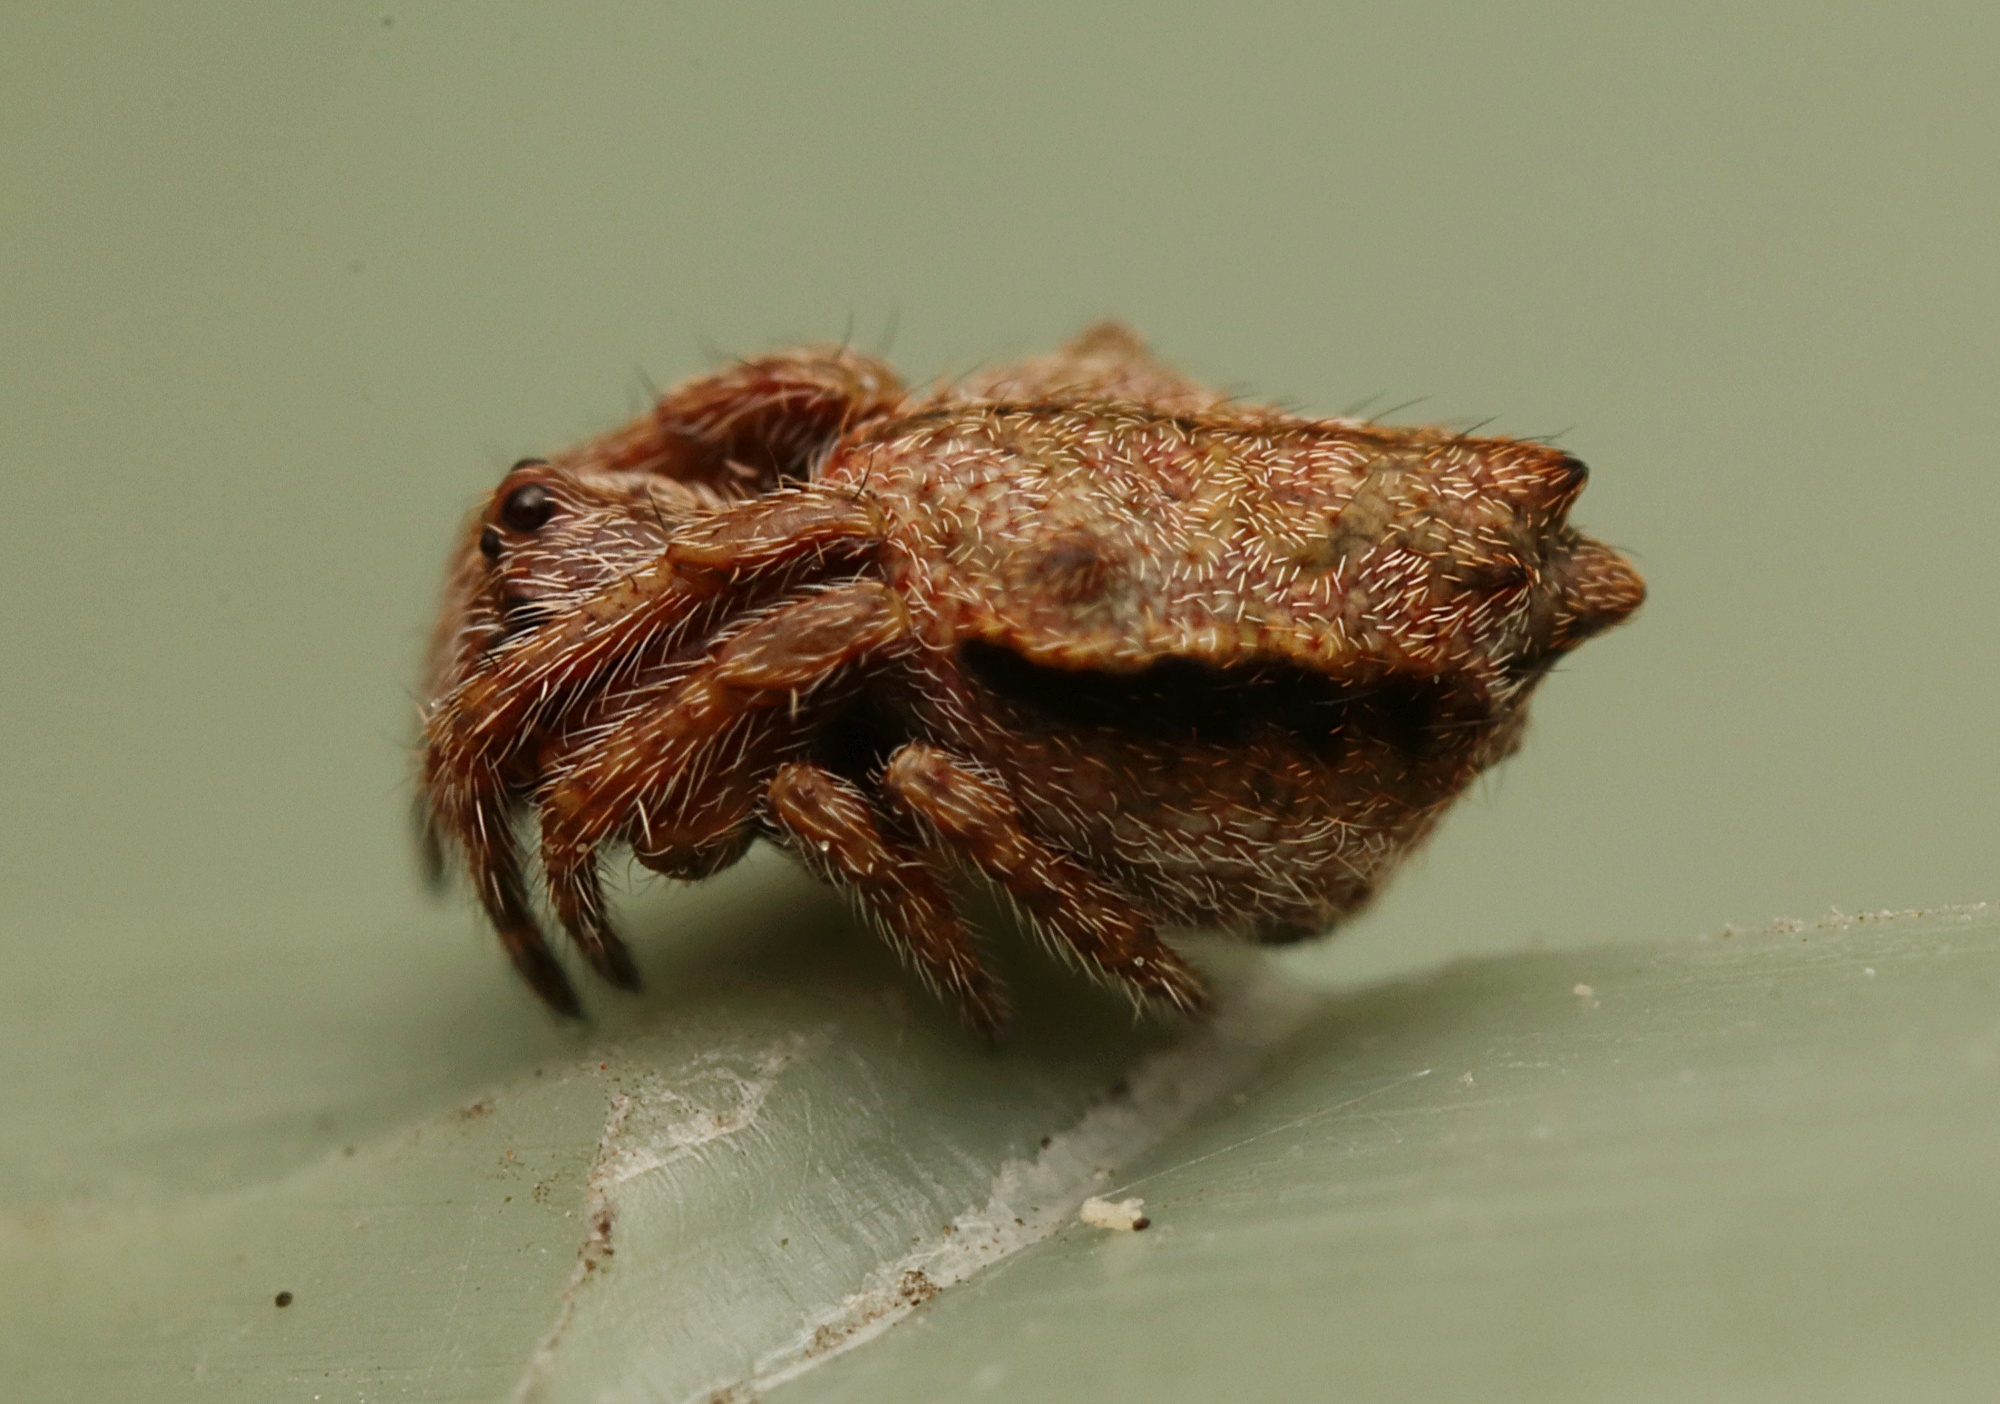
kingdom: Animalia
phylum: Arthropoda
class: Arachnida
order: Araneae
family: Araneidae
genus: Eriophora
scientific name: Eriophora pustulosa
